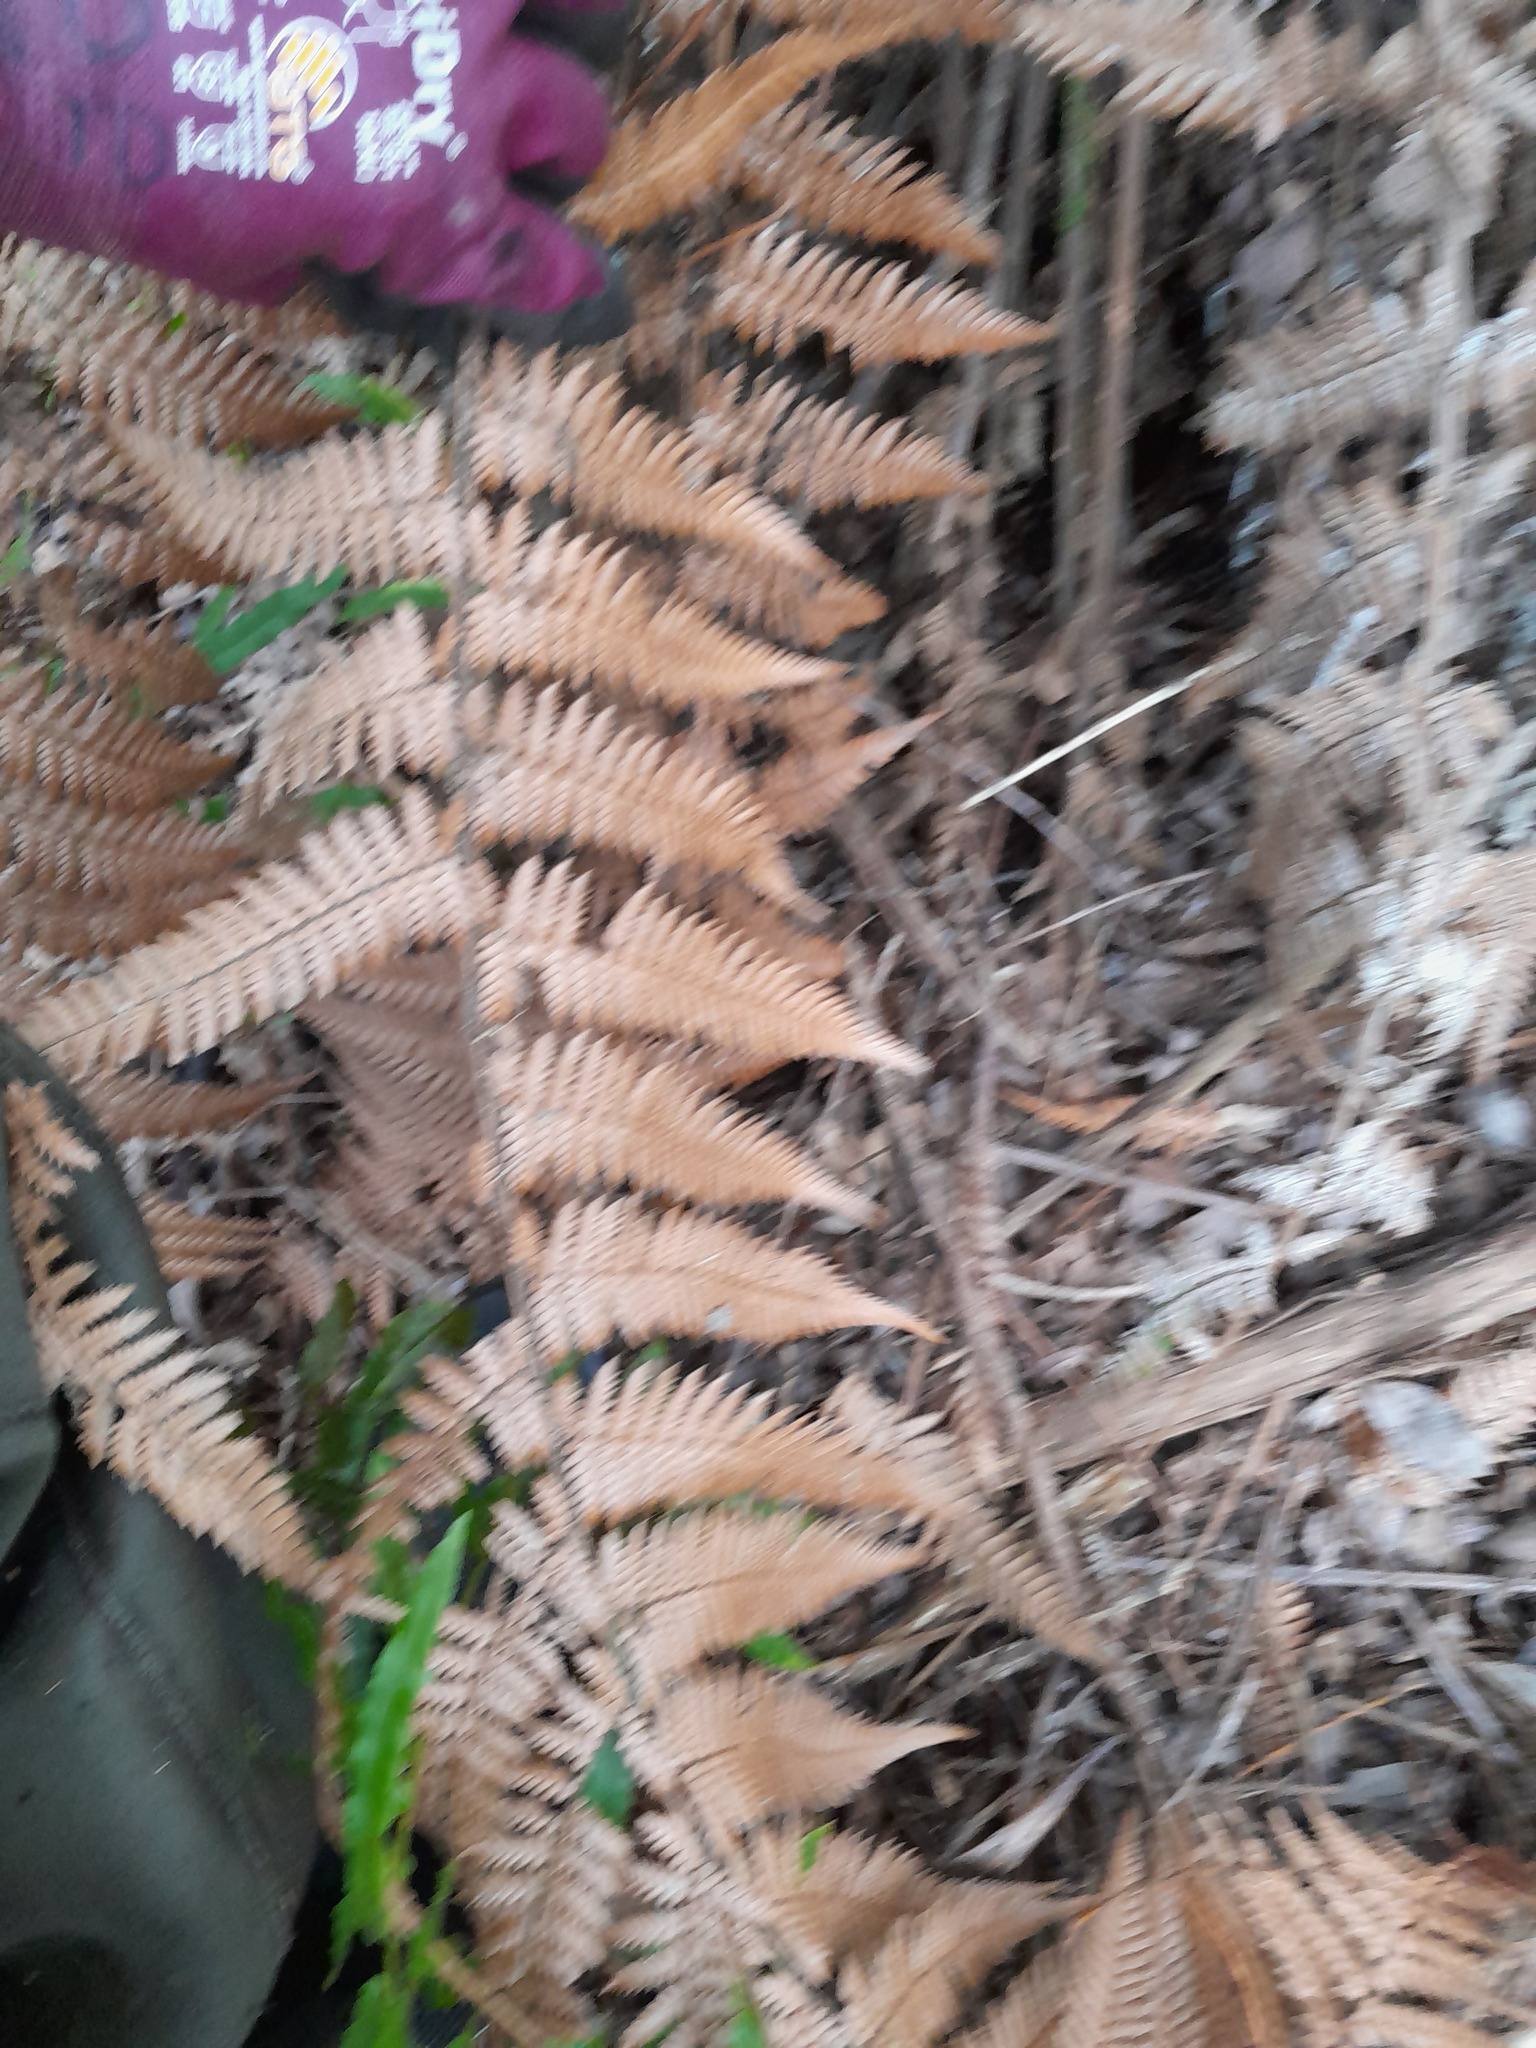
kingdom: Plantae
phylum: Tracheophyta
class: Polypodiopsida
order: Cyatheales
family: Dicksoniaceae
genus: Dicksonia
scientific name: Dicksonia fibrosa
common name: Golden tree fern
